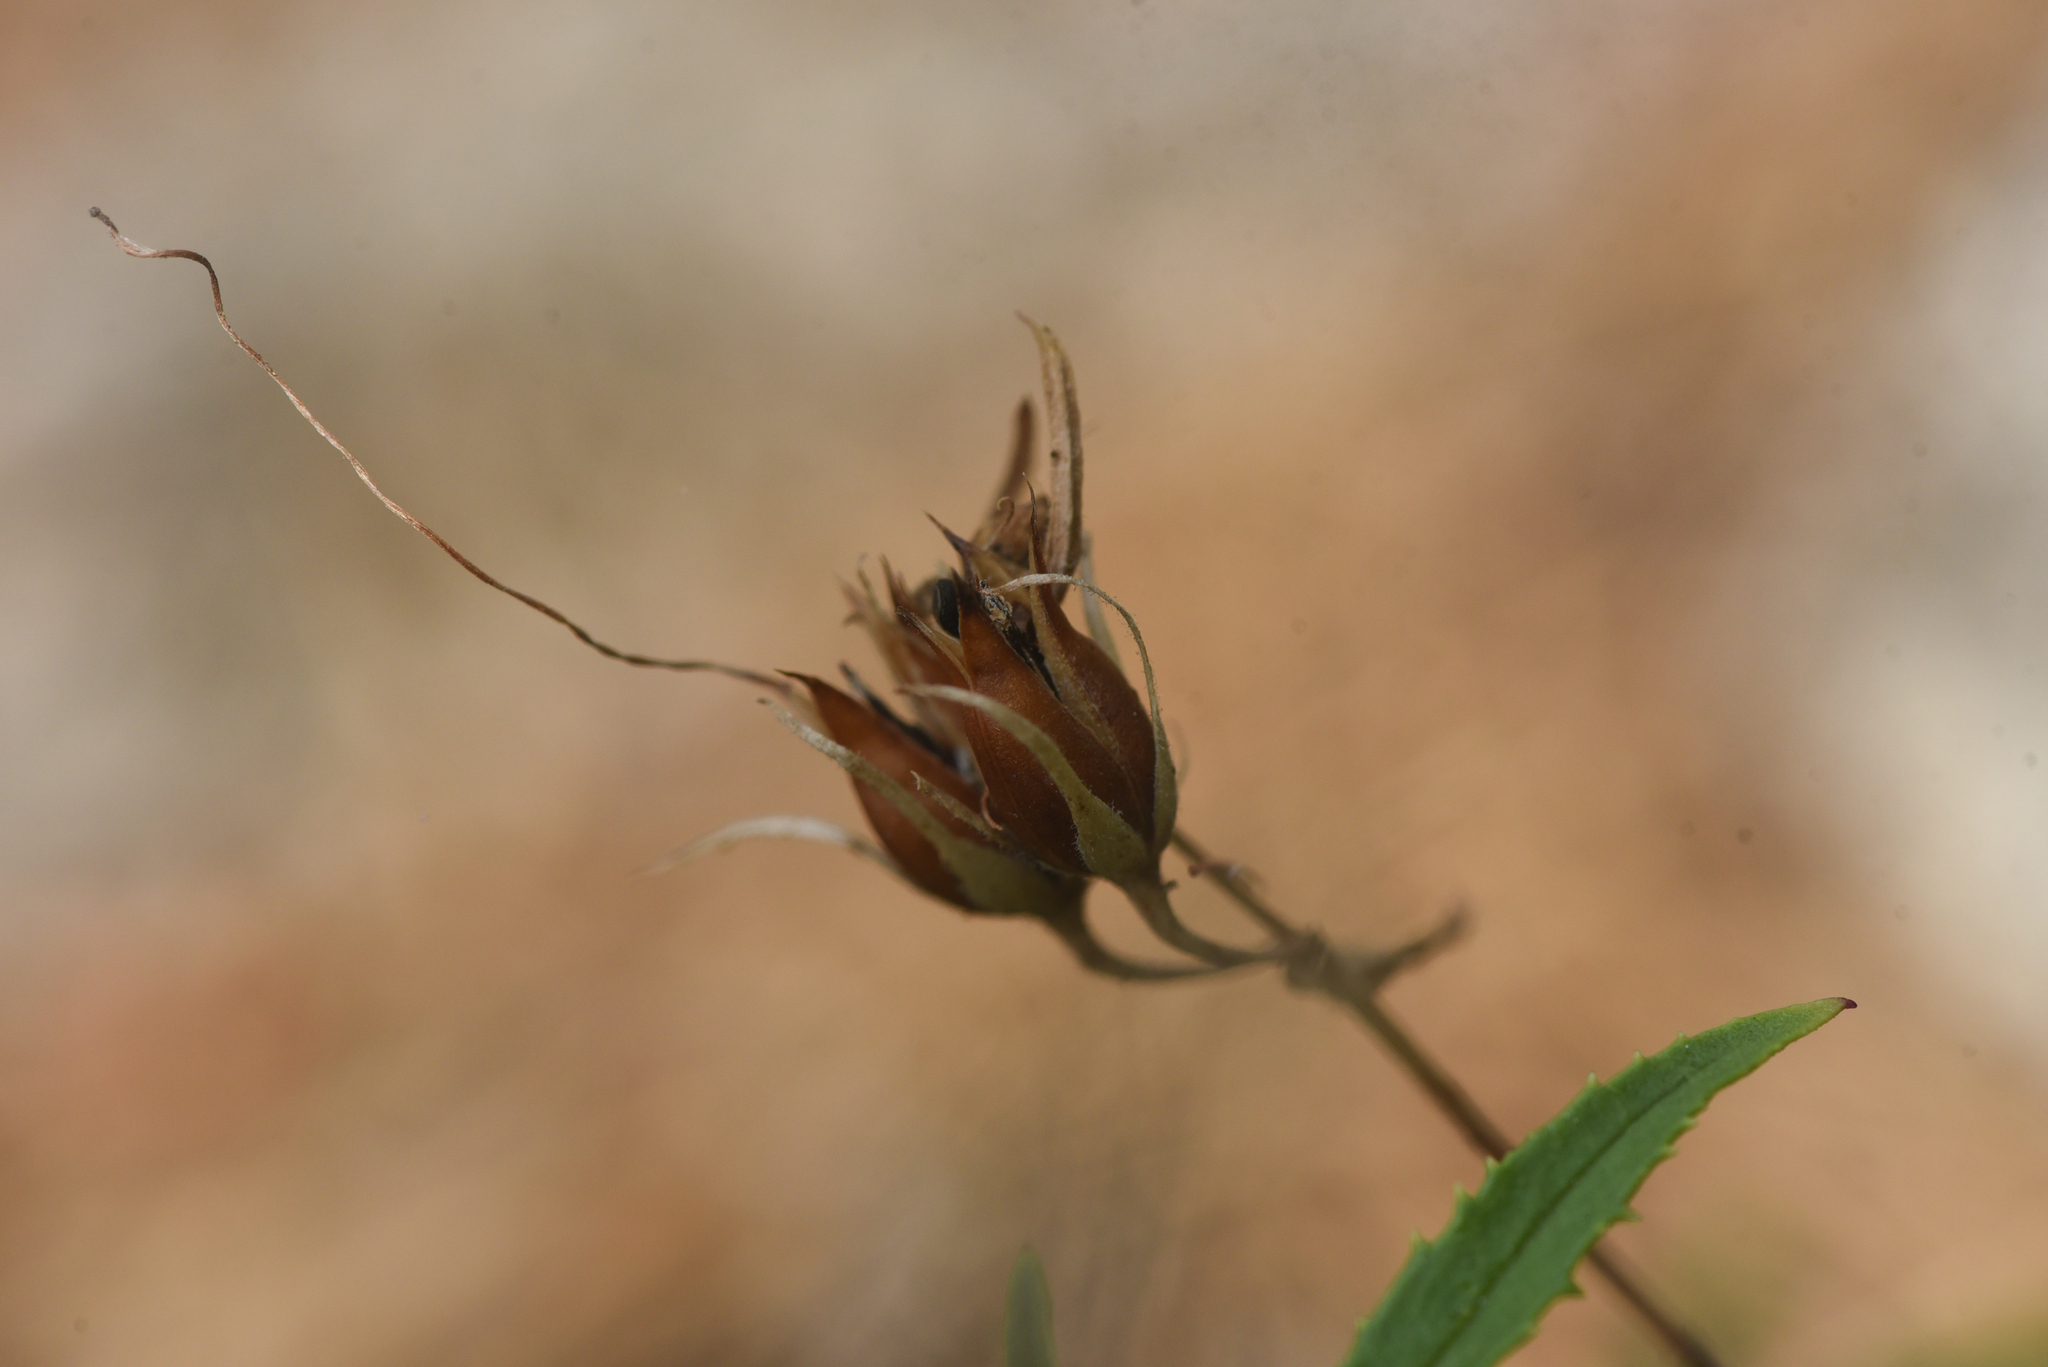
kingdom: Plantae
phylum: Tracheophyta
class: Magnoliopsida
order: Lamiales
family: Plantaginaceae
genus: Penstemon
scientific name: Penstemon fruticosus
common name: Bush penstemon
